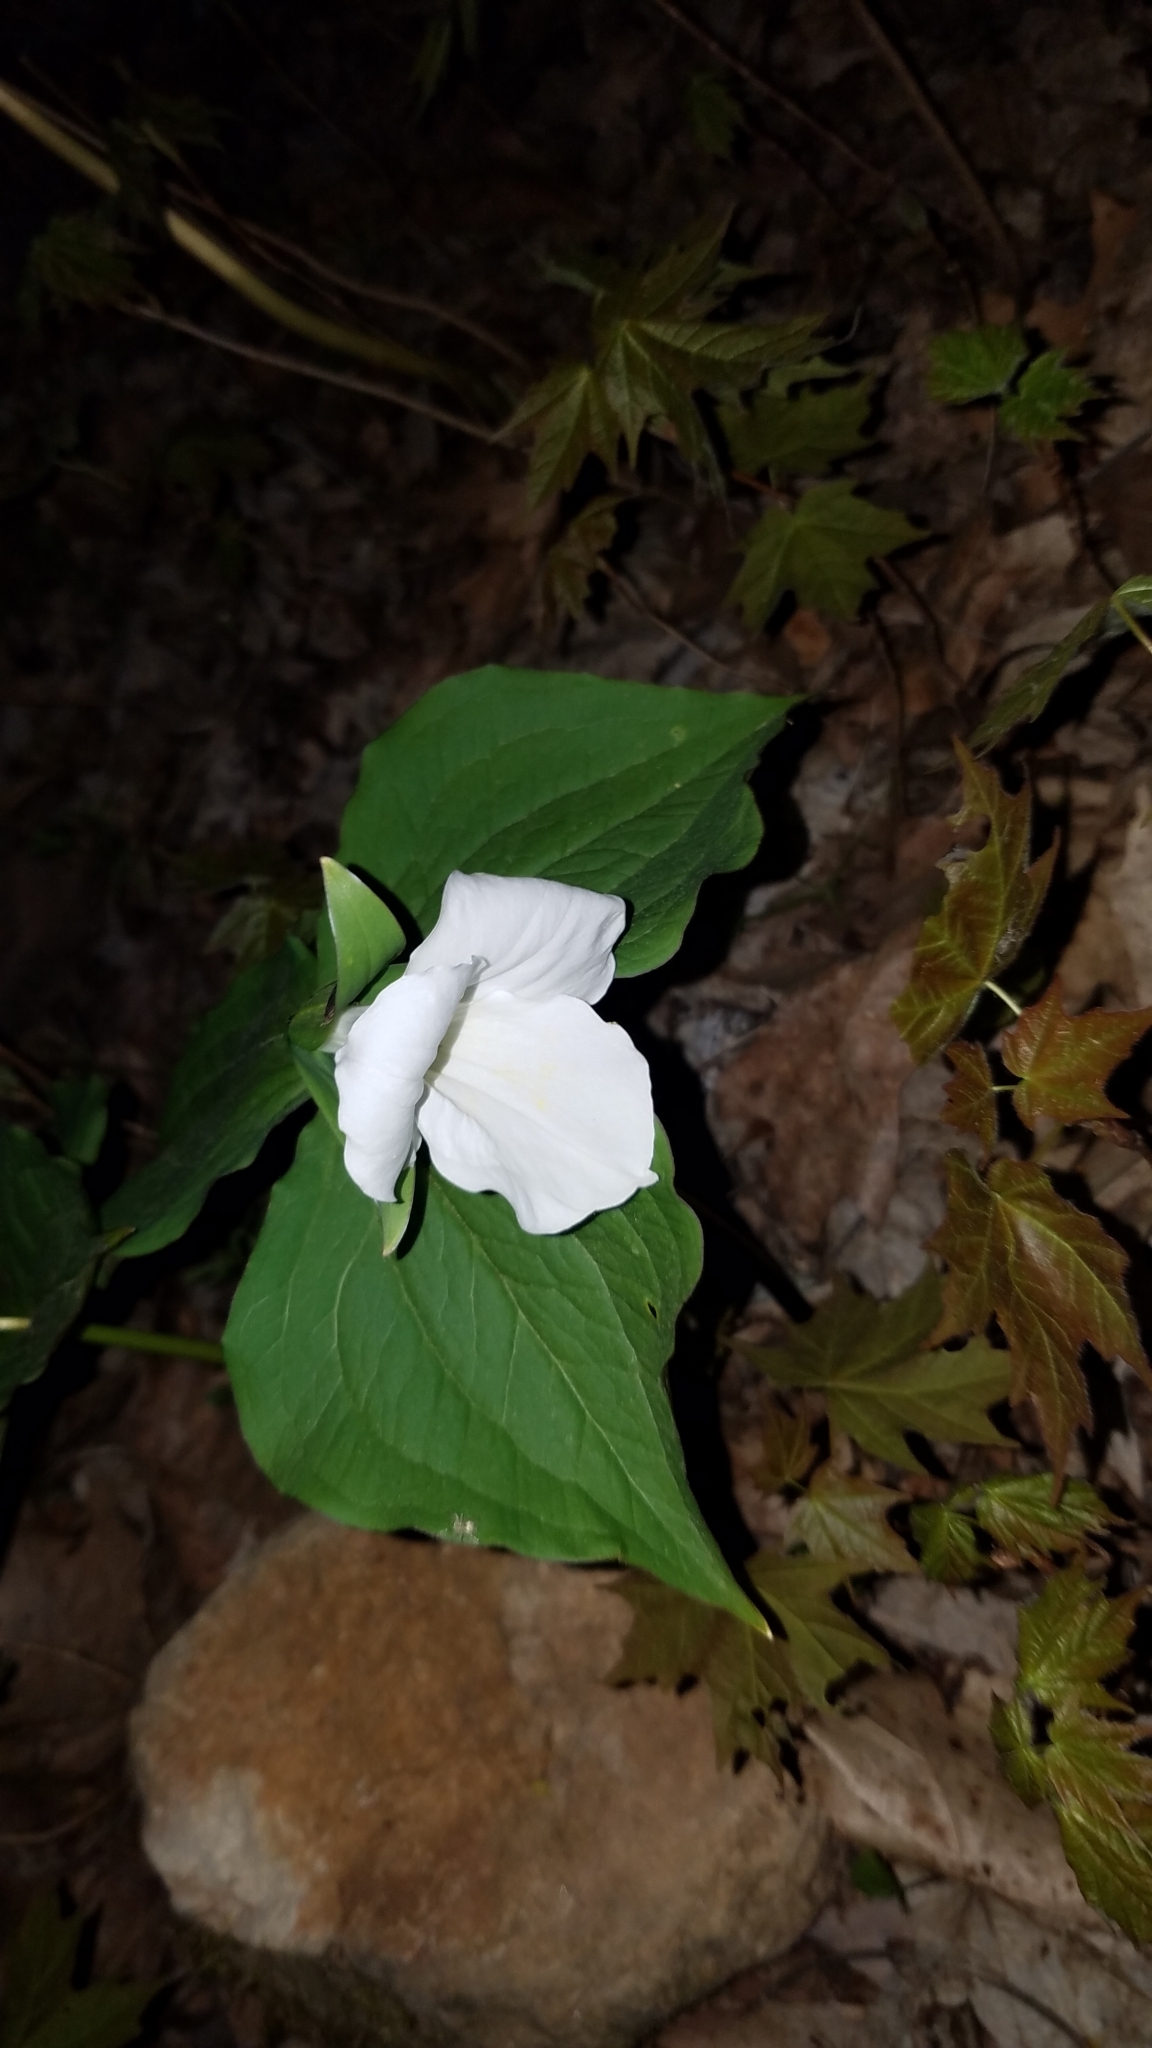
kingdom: Plantae
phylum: Tracheophyta
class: Liliopsida
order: Liliales
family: Melanthiaceae
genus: Trillium
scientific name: Trillium grandiflorum
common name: Great white trillium
